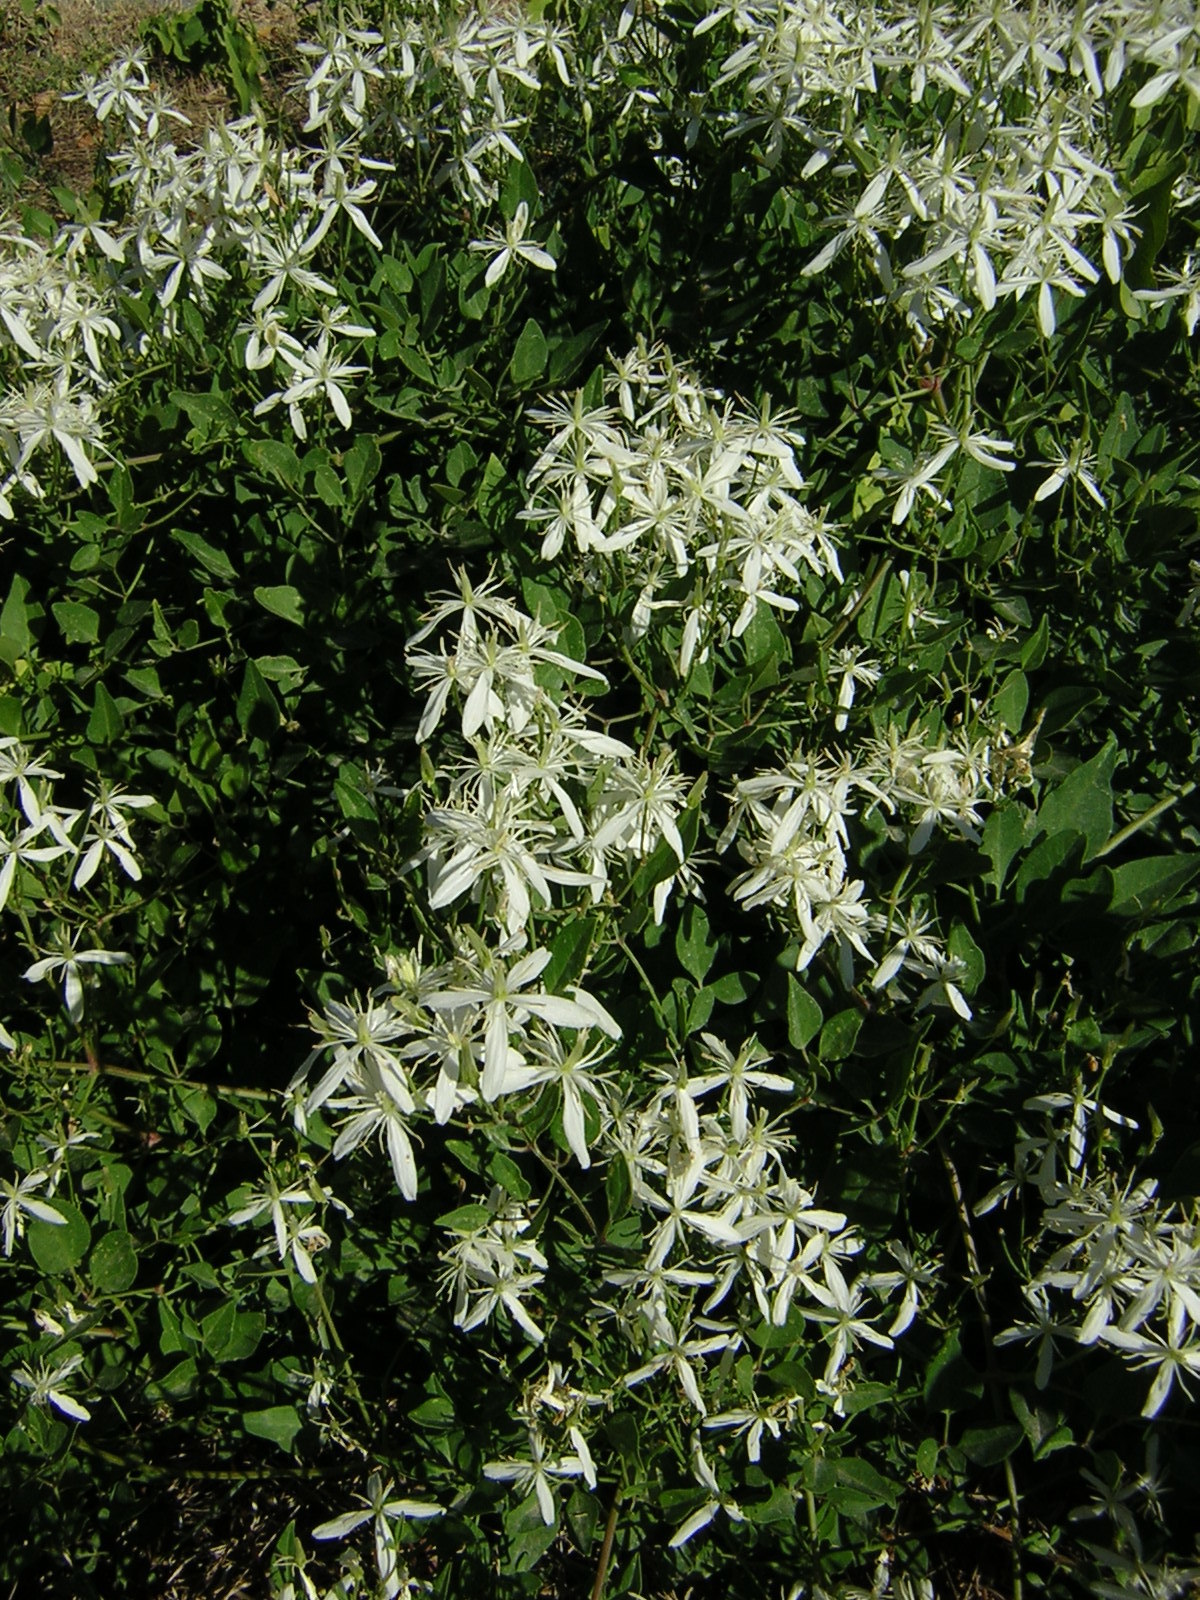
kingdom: Plantae
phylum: Tracheophyta
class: Magnoliopsida
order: Ranunculales
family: Ranunculaceae
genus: Clematis
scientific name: Clematis flammula
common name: Virgin's-bower
